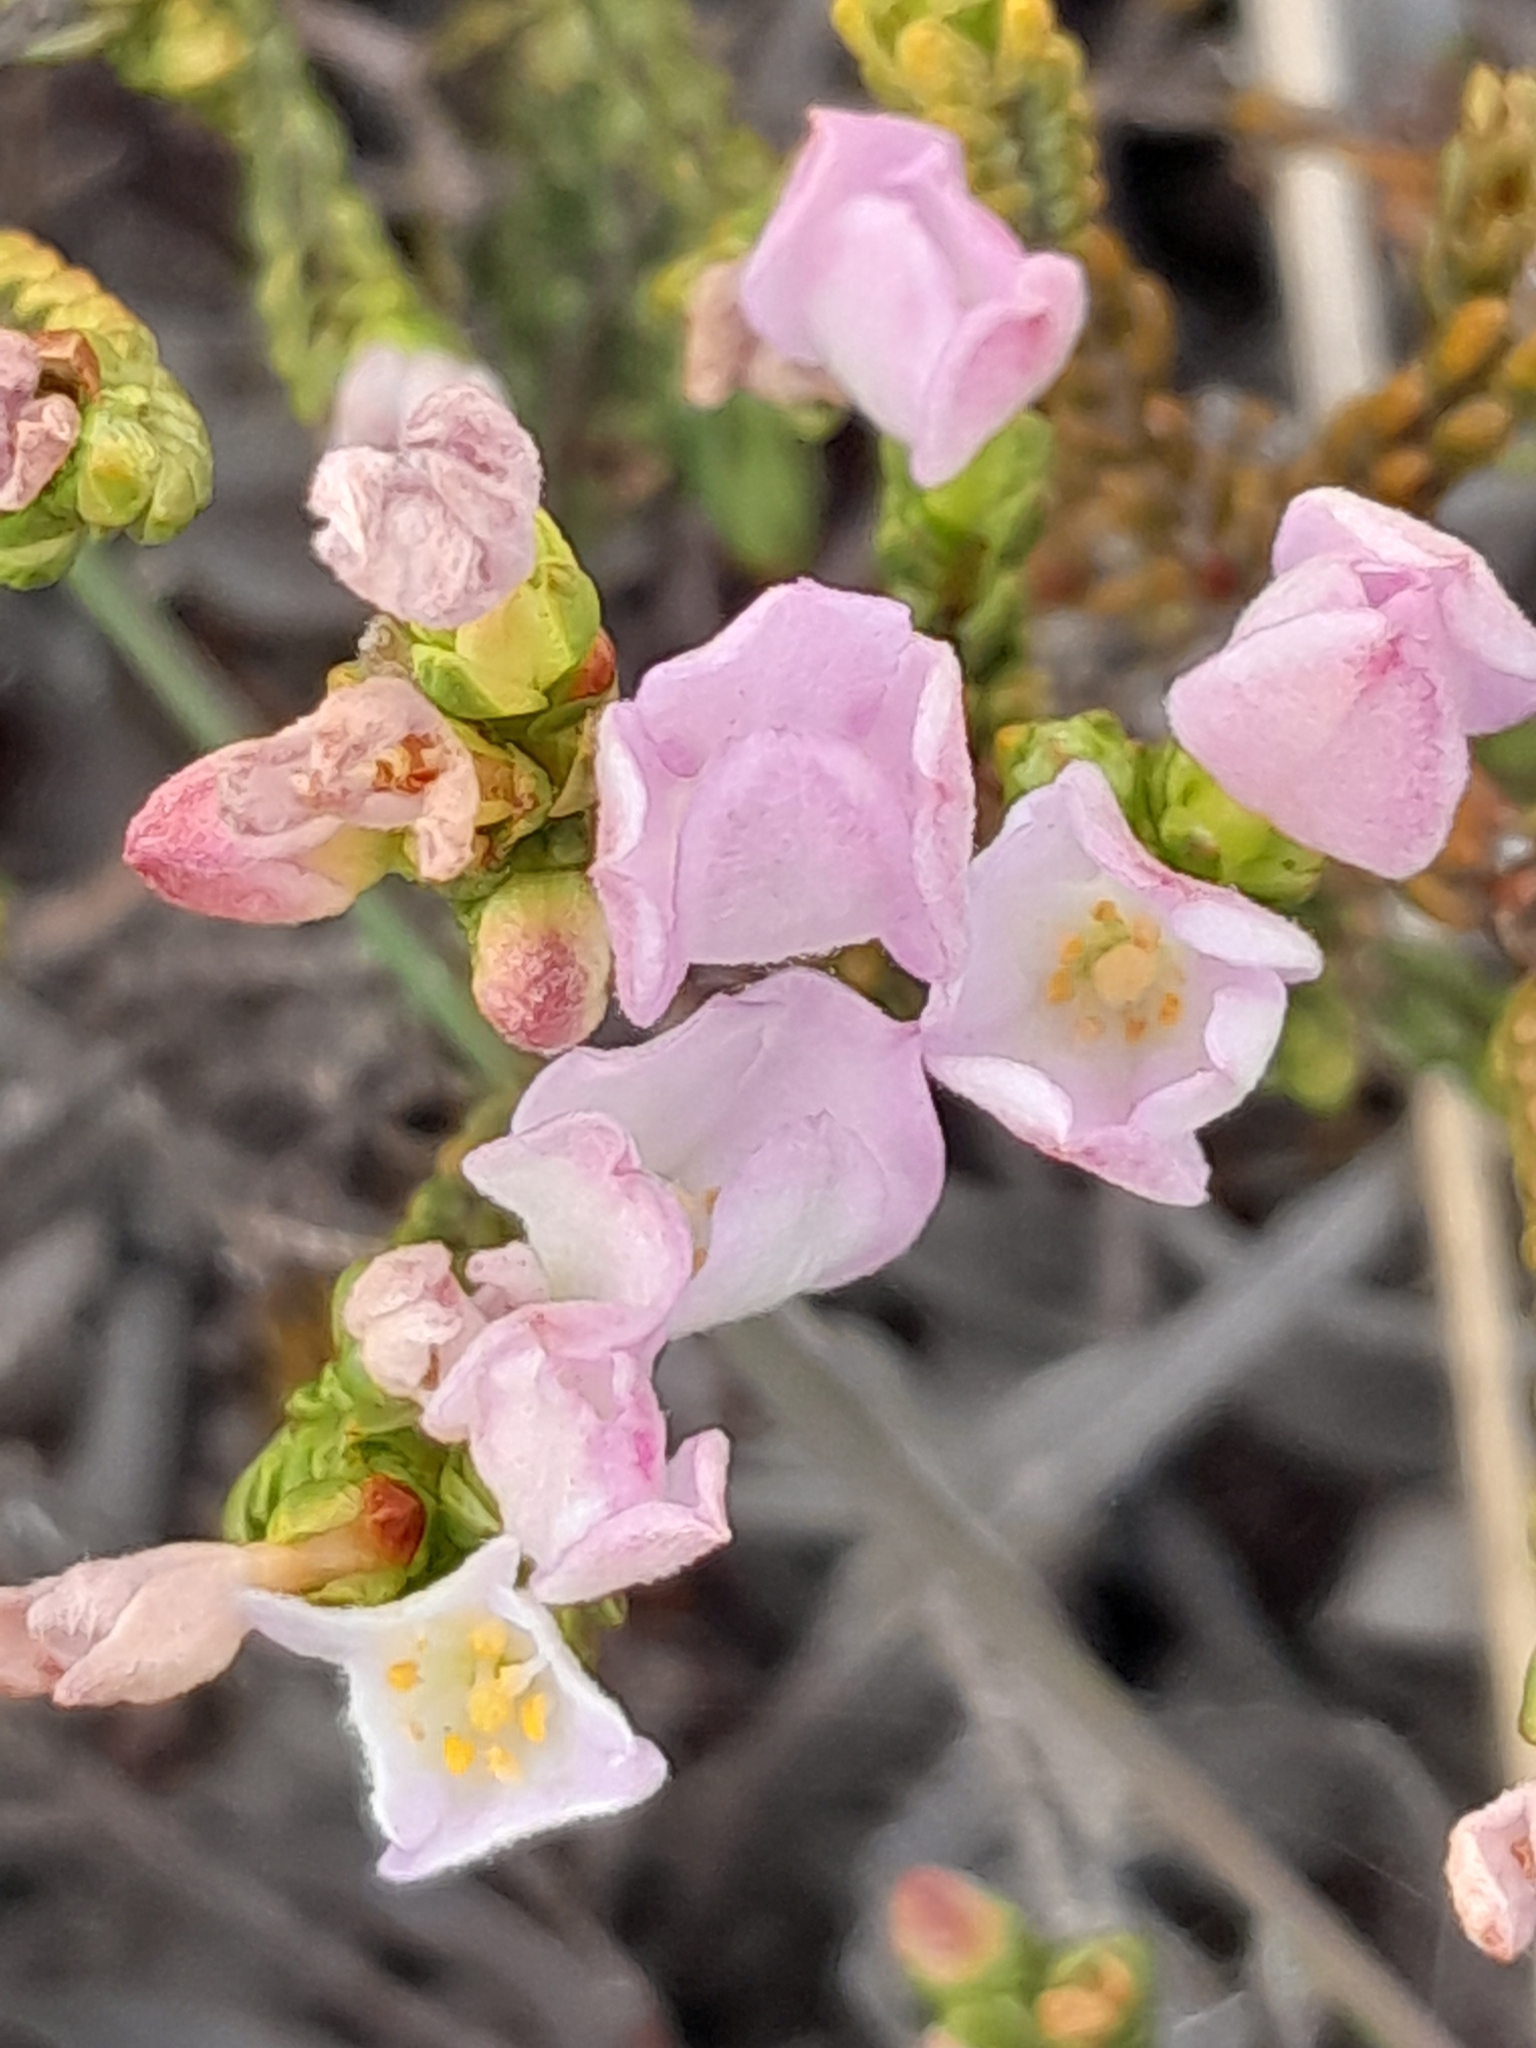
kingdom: Plantae
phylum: Tracheophyta
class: Magnoliopsida
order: Malvales
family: Thymelaeaceae
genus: Lachnaea
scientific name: Lachnaea grandiflora
